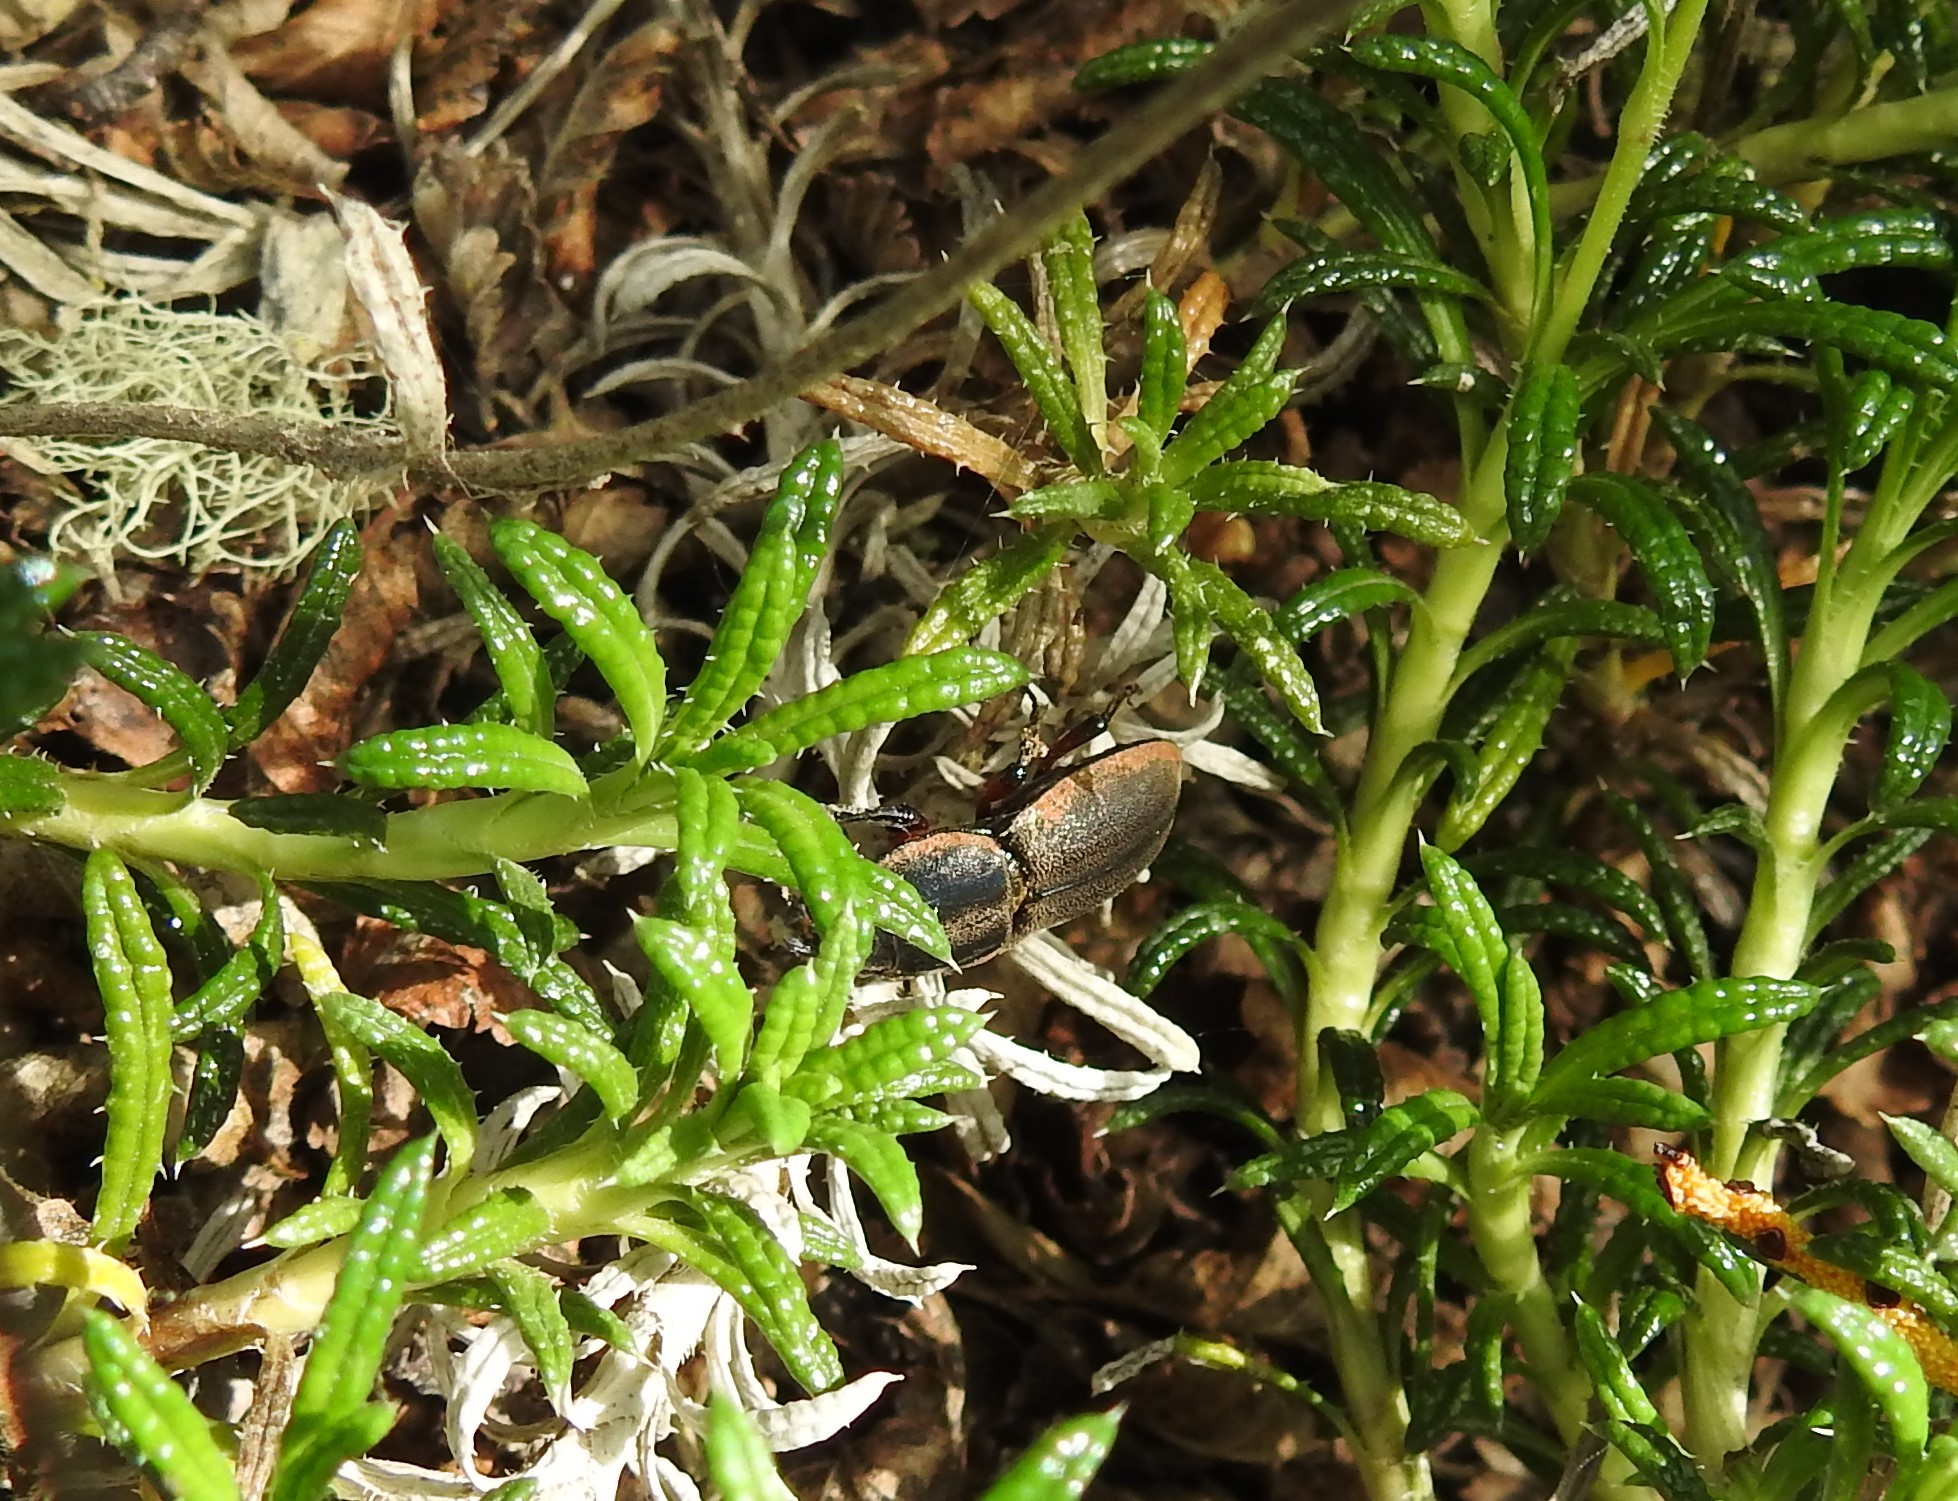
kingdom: Animalia
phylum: Arthropoda
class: Insecta
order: Coleoptera
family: Lucanidae
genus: Erichius
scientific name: Erichius femoralis
